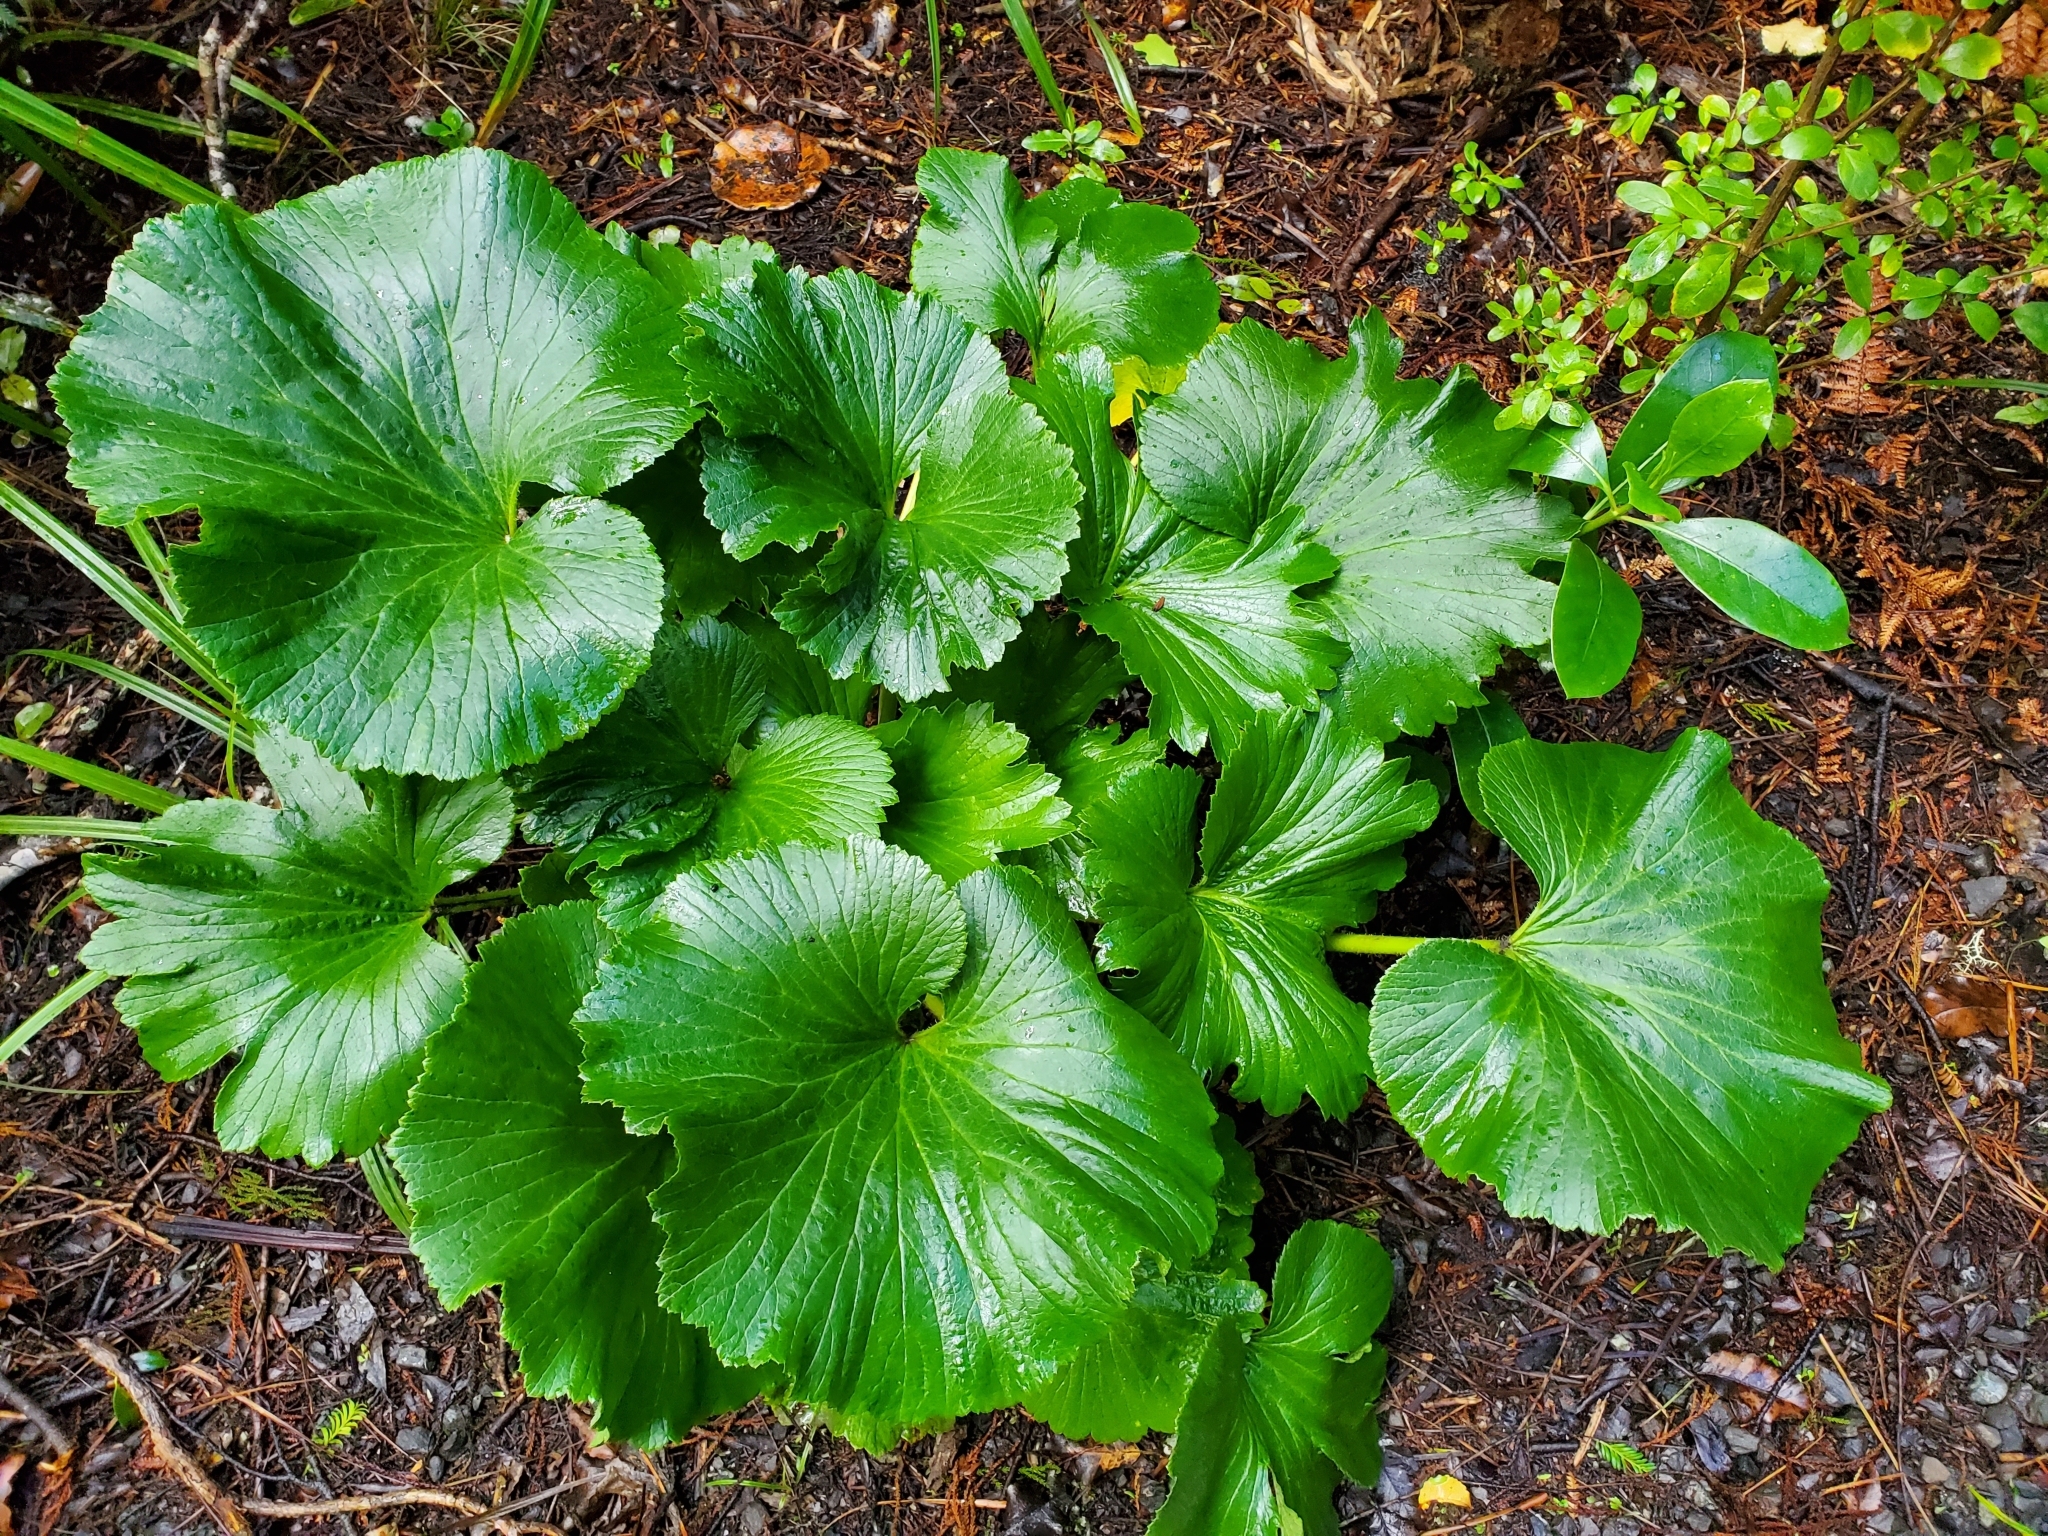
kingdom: Plantae
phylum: Tracheophyta
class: Magnoliopsida
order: Apiales
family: Apiaceae
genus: Azorella
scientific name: Azorella lyallii
